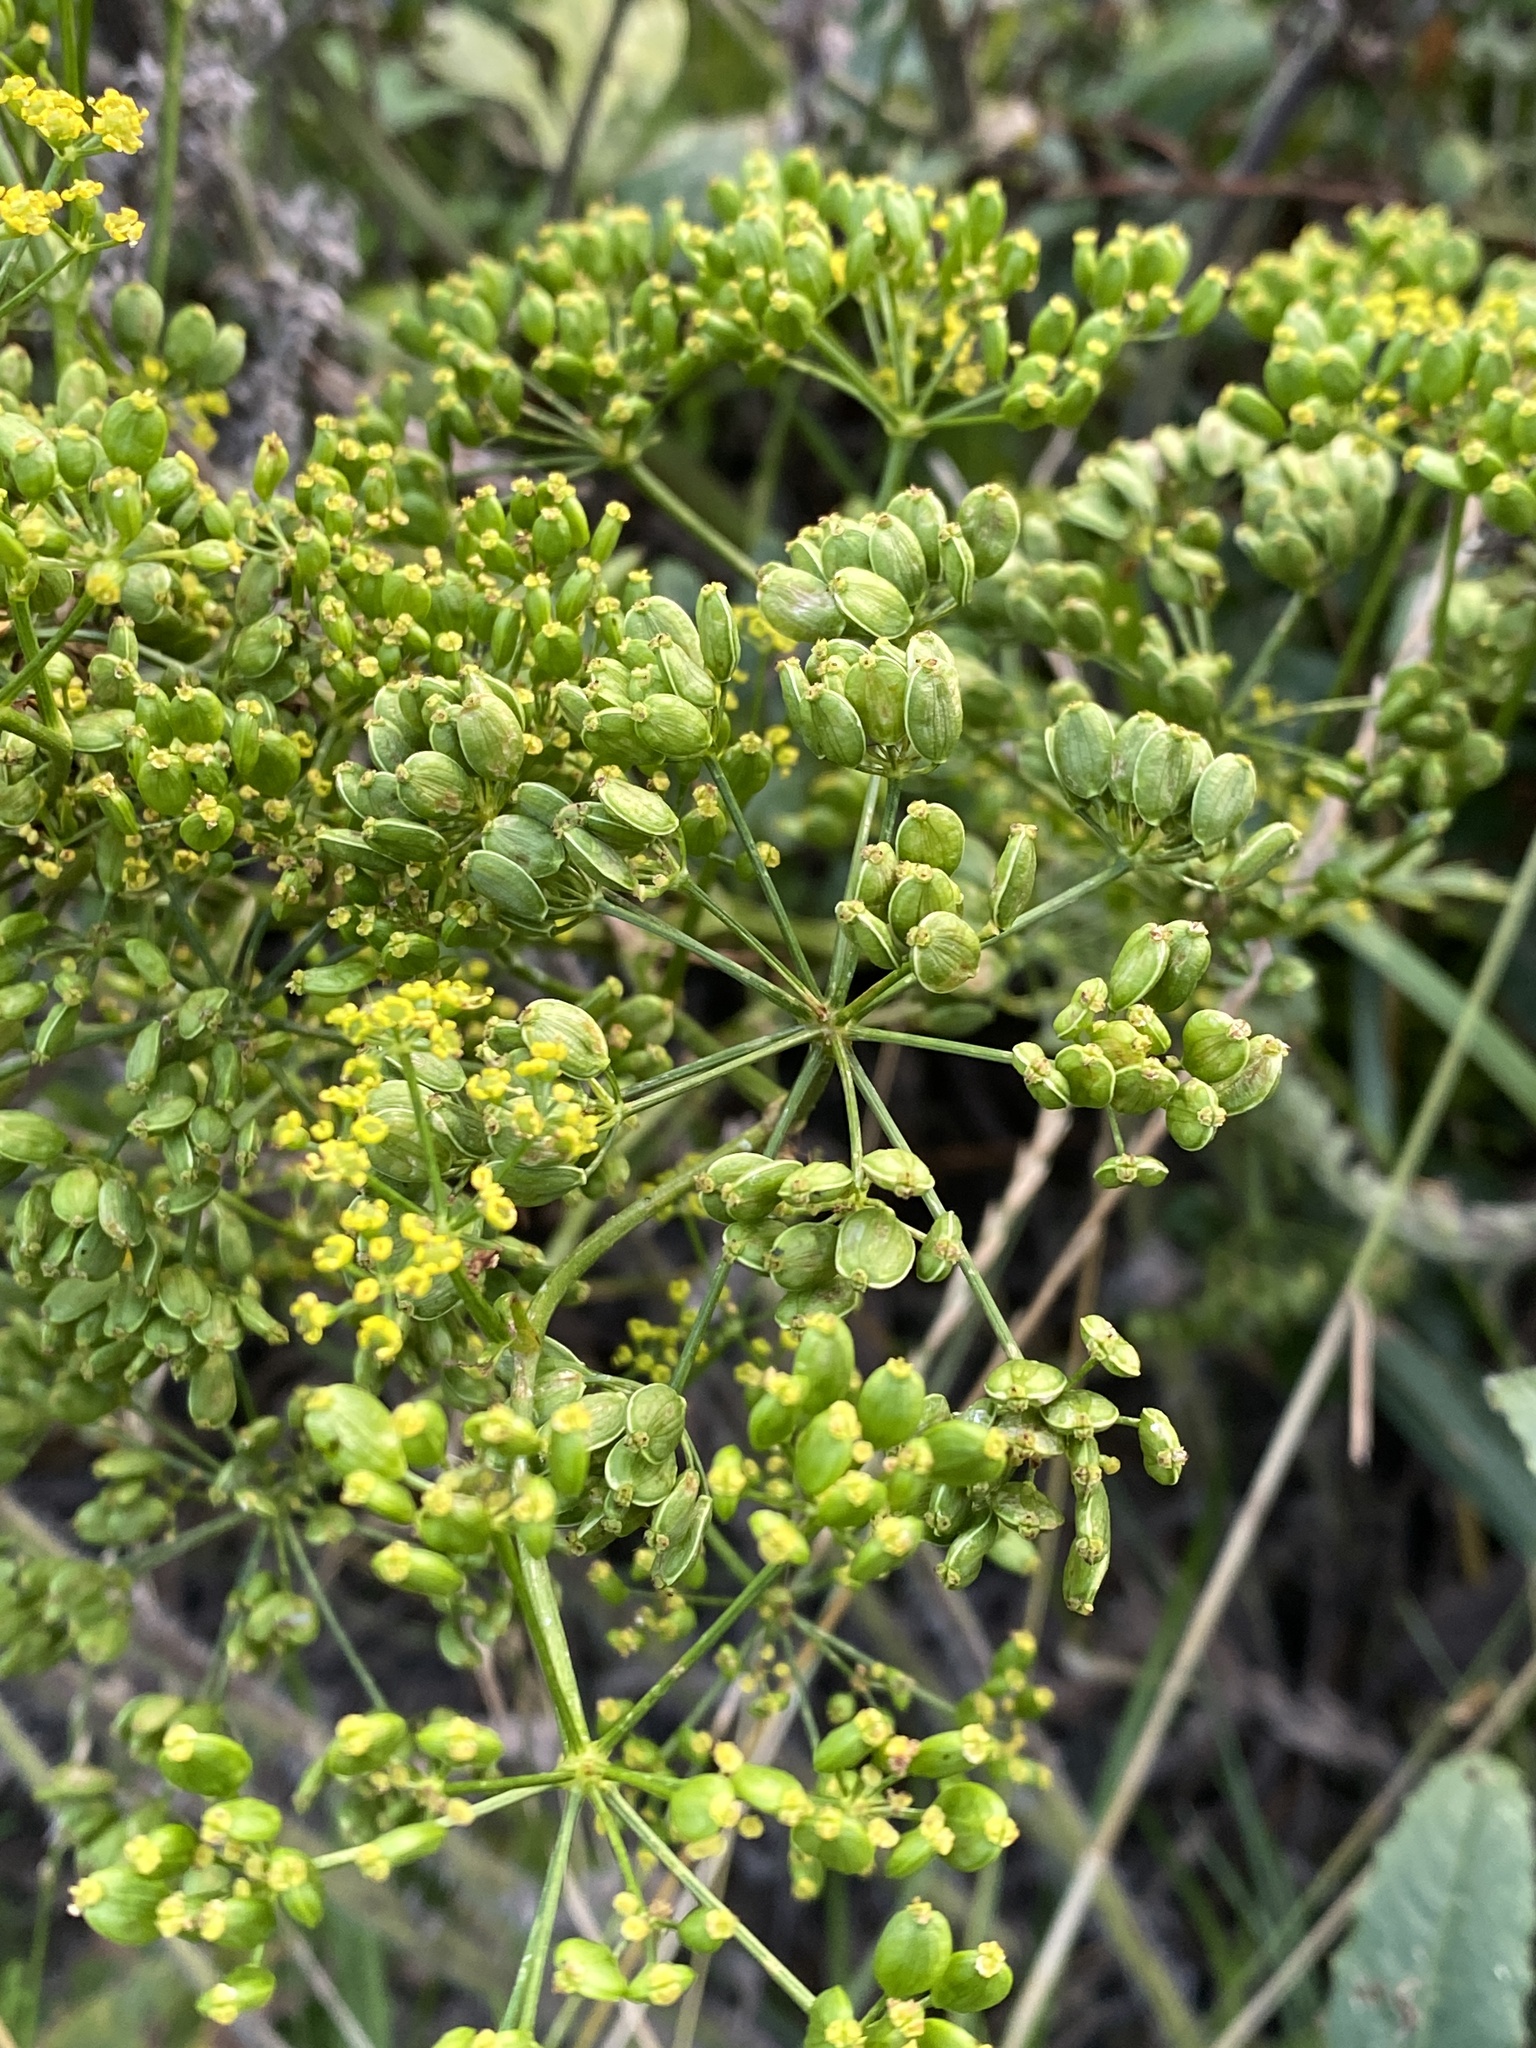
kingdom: Plantae
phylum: Tracheophyta
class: Magnoliopsida
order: Apiales
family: Apiaceae
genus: Pastinaca
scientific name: Pastinaca sativa
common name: Wild parsnip
